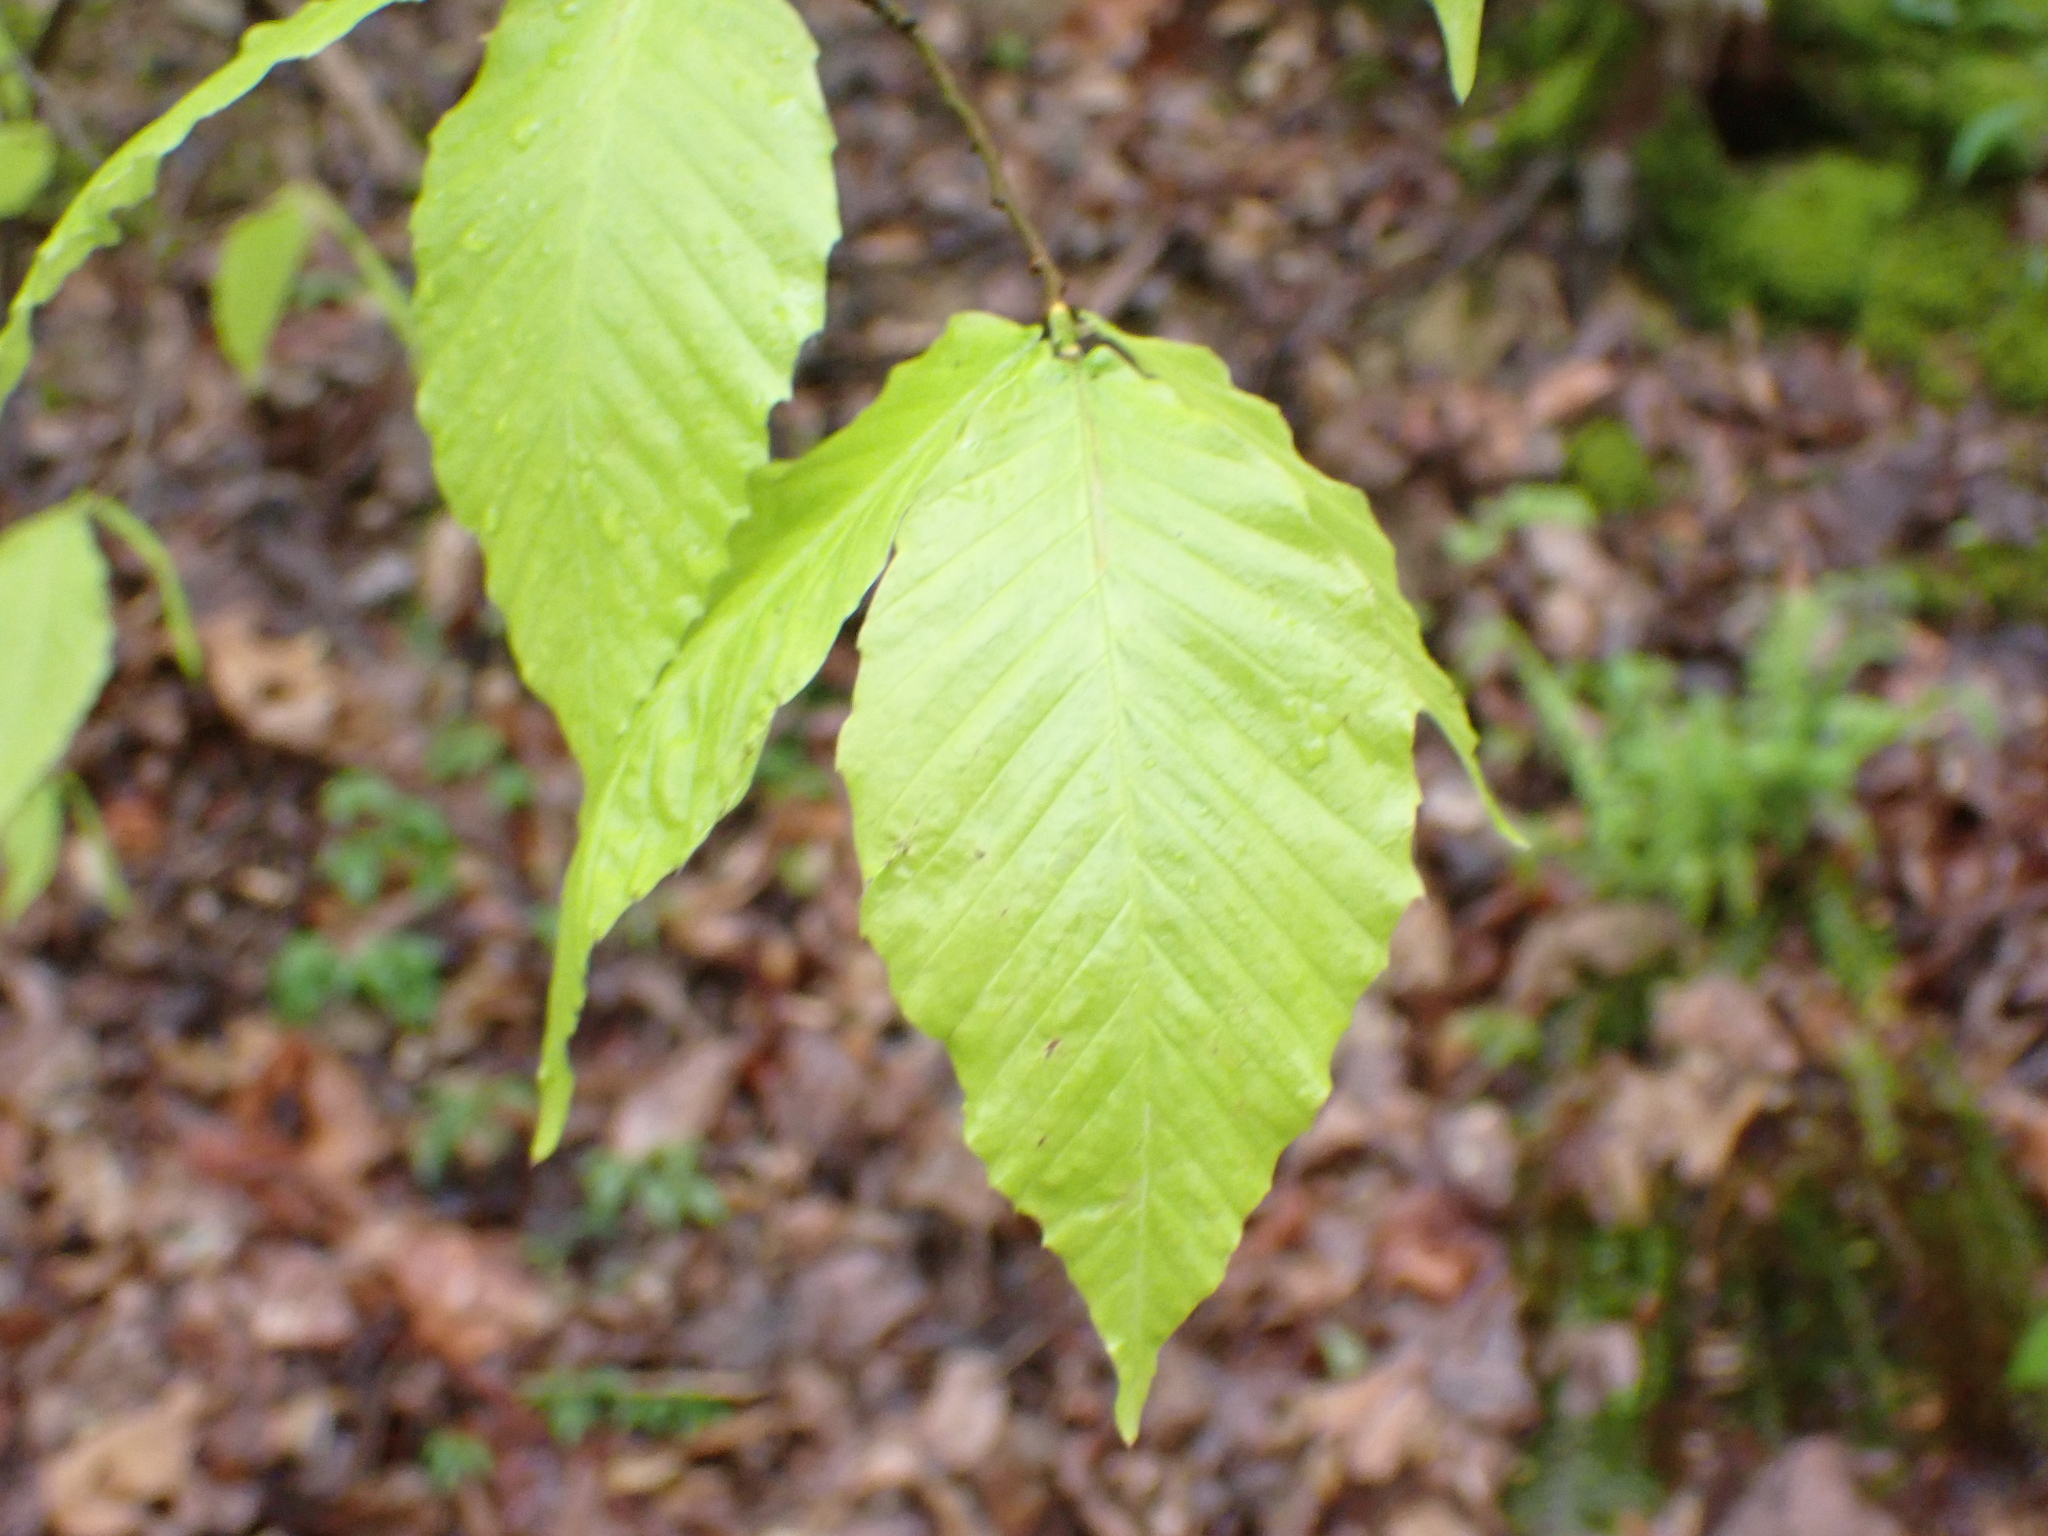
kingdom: Plantae
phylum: Tracheophyta
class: Magnoliopsida
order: Fagales
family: Fagaceae
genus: Fagus
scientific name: Fagus grandifolia
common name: American beech
